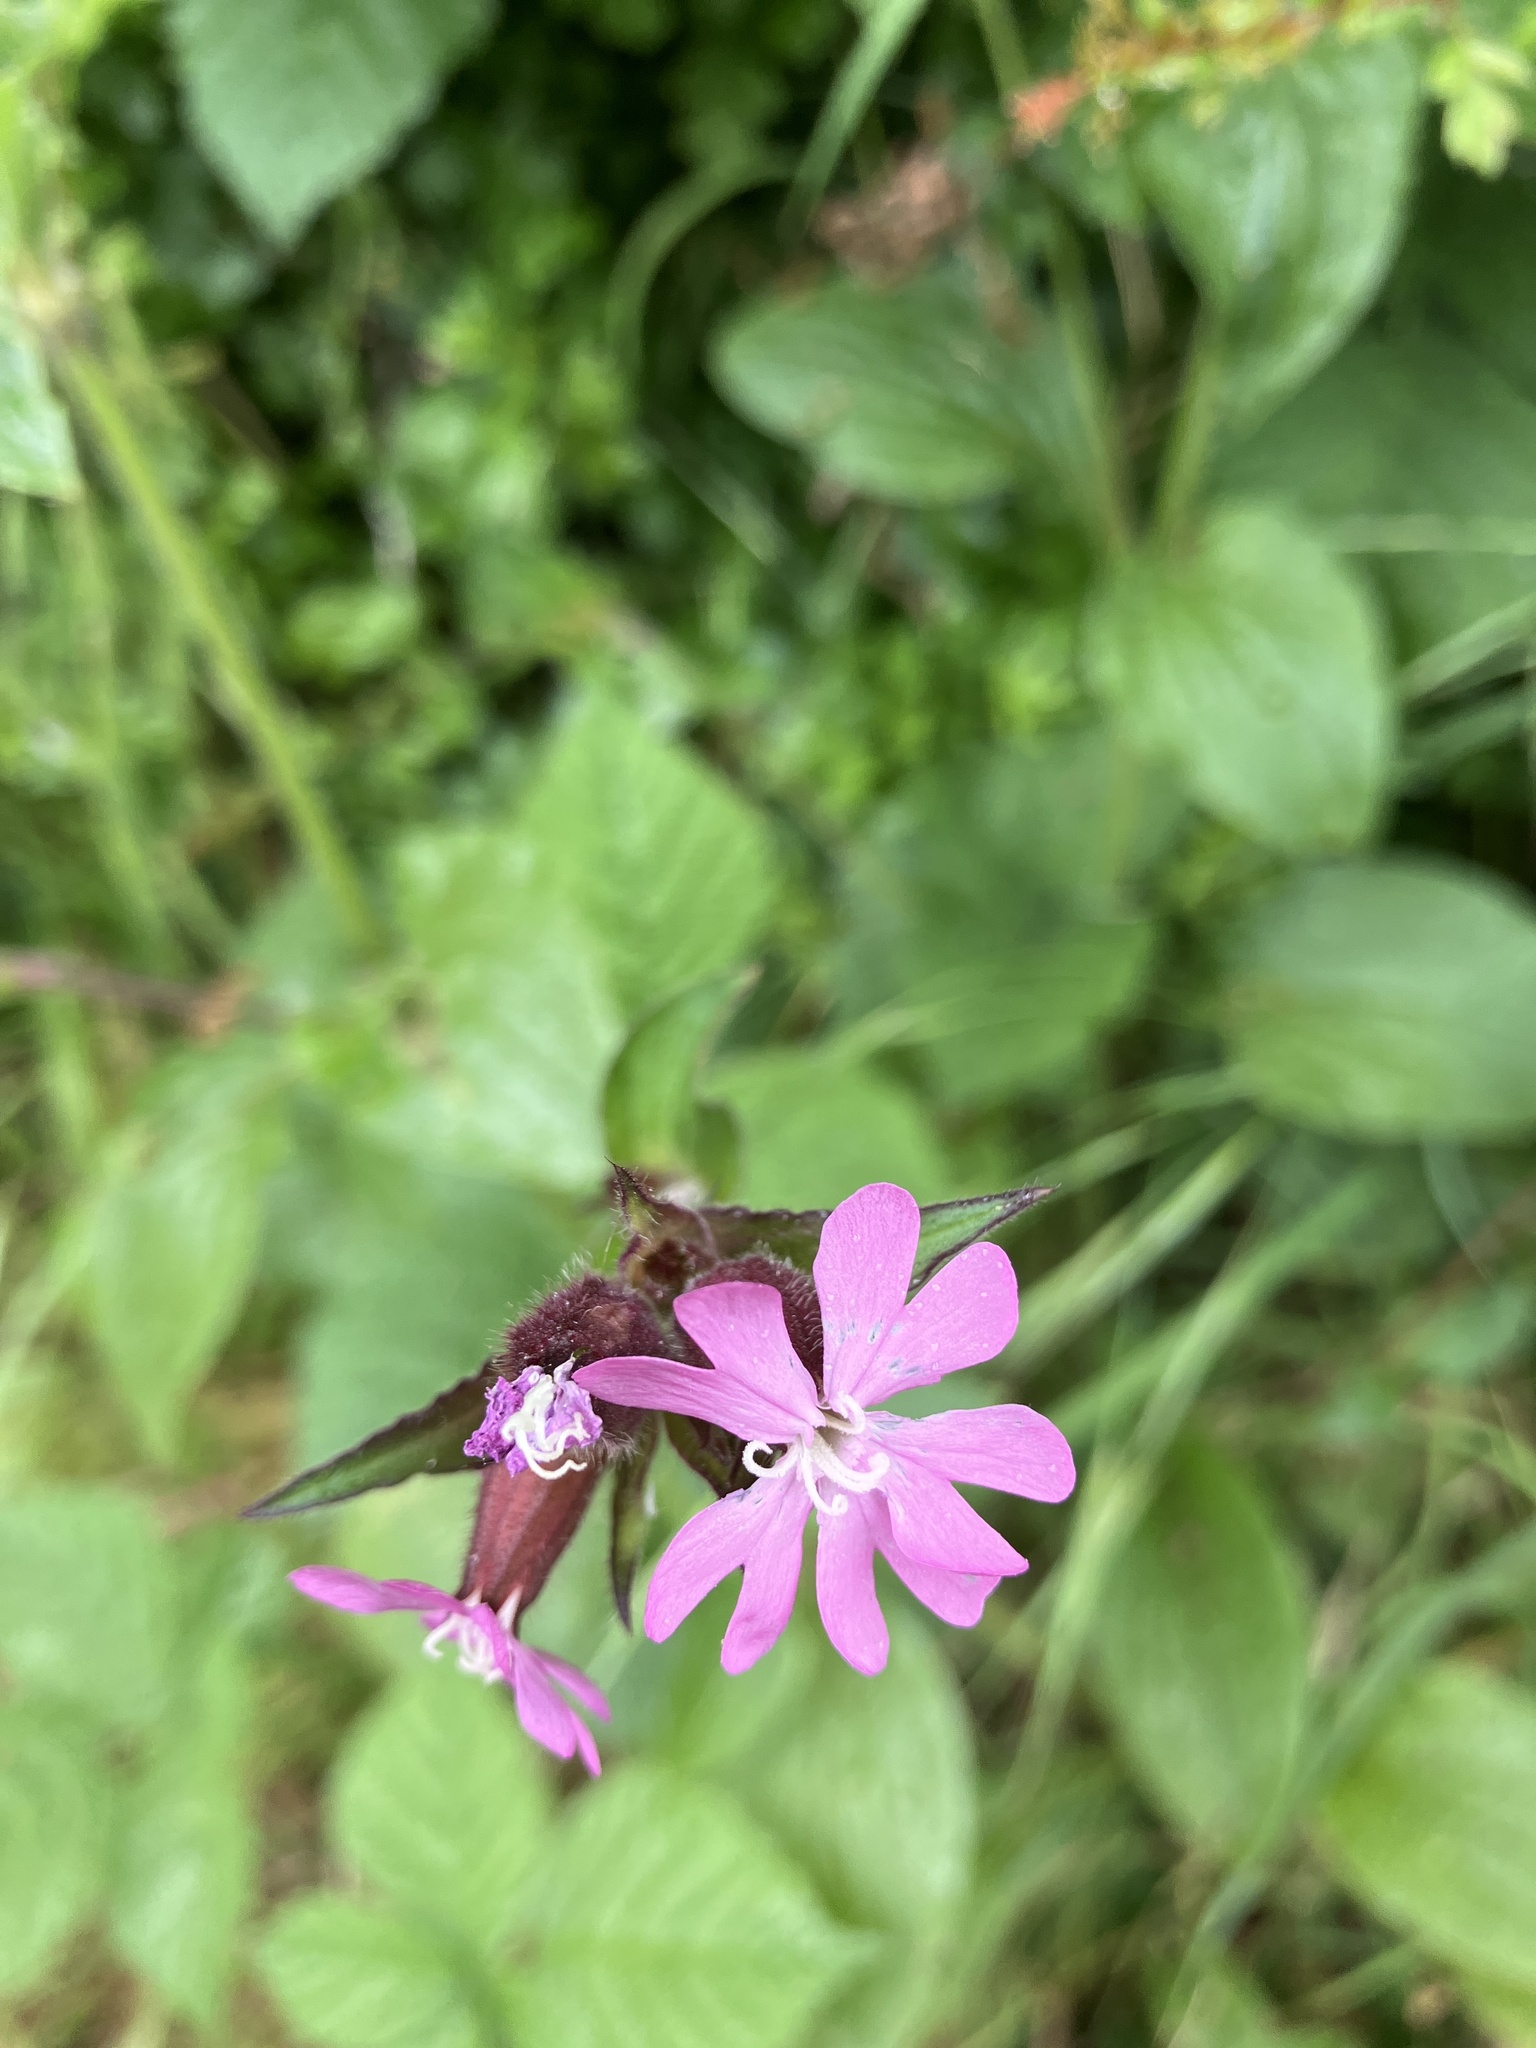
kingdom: Plantae
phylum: Tracheophyta
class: Magnoliopsida
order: Caryophyllales
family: Caryophyllaceae
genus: Silene
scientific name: Silene dioica
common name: Red campion
